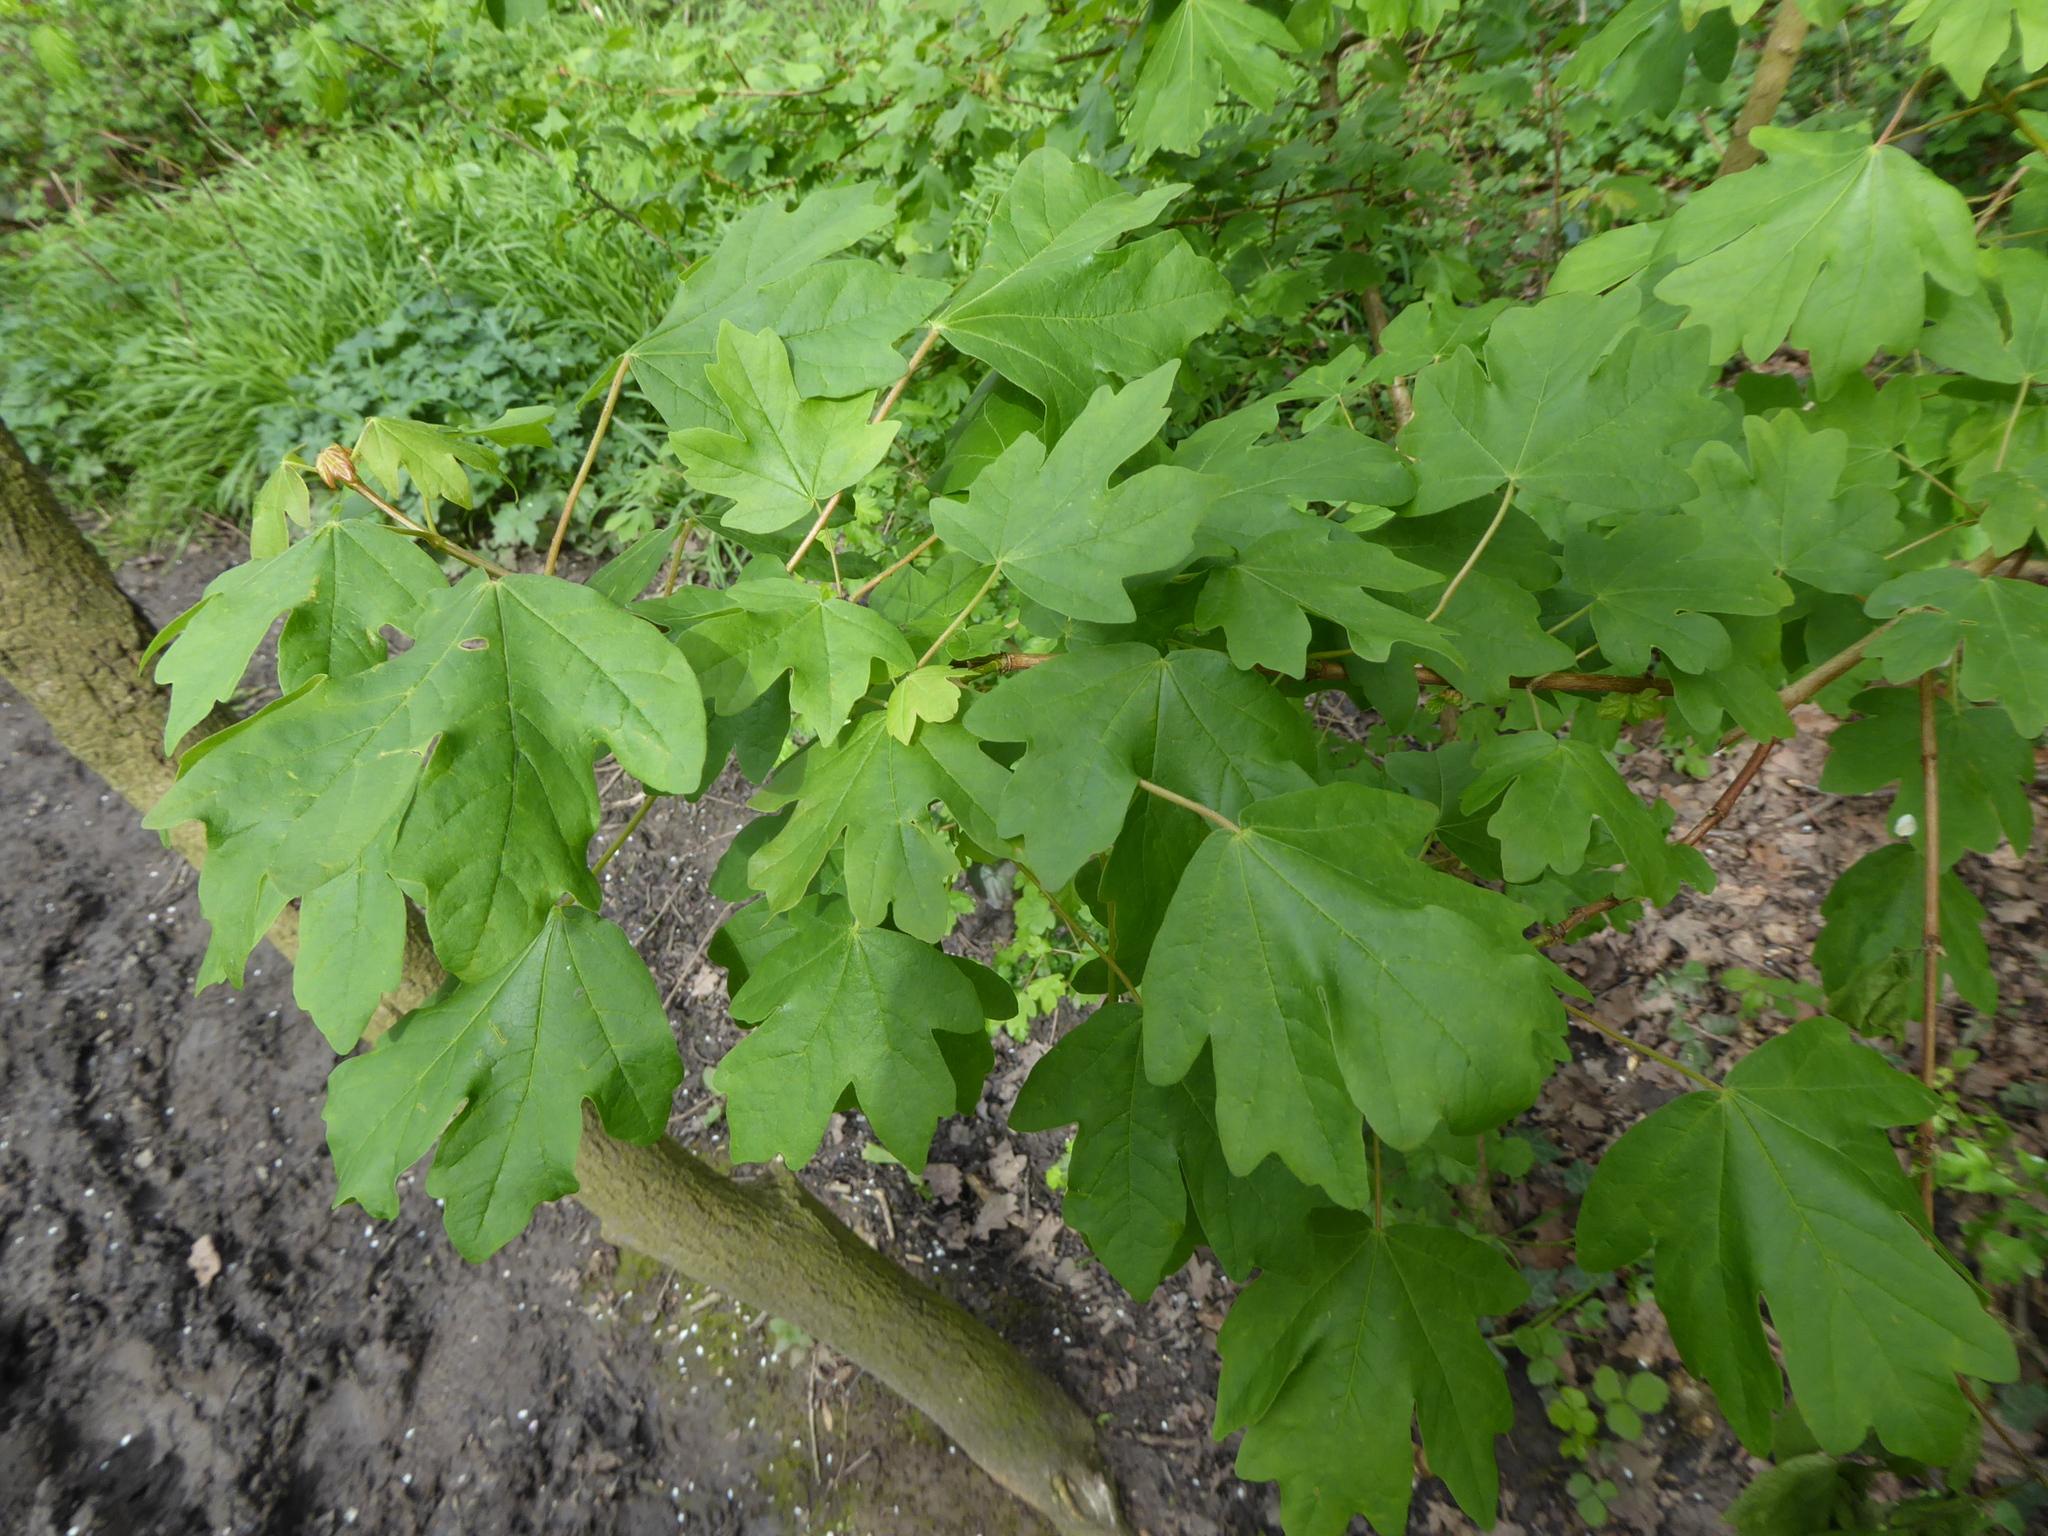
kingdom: Plantae
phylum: Tracheophyta
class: Magnoliopsida
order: Sapindales
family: Sapindaceae
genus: Acer
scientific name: Acer campestre
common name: Field maple
